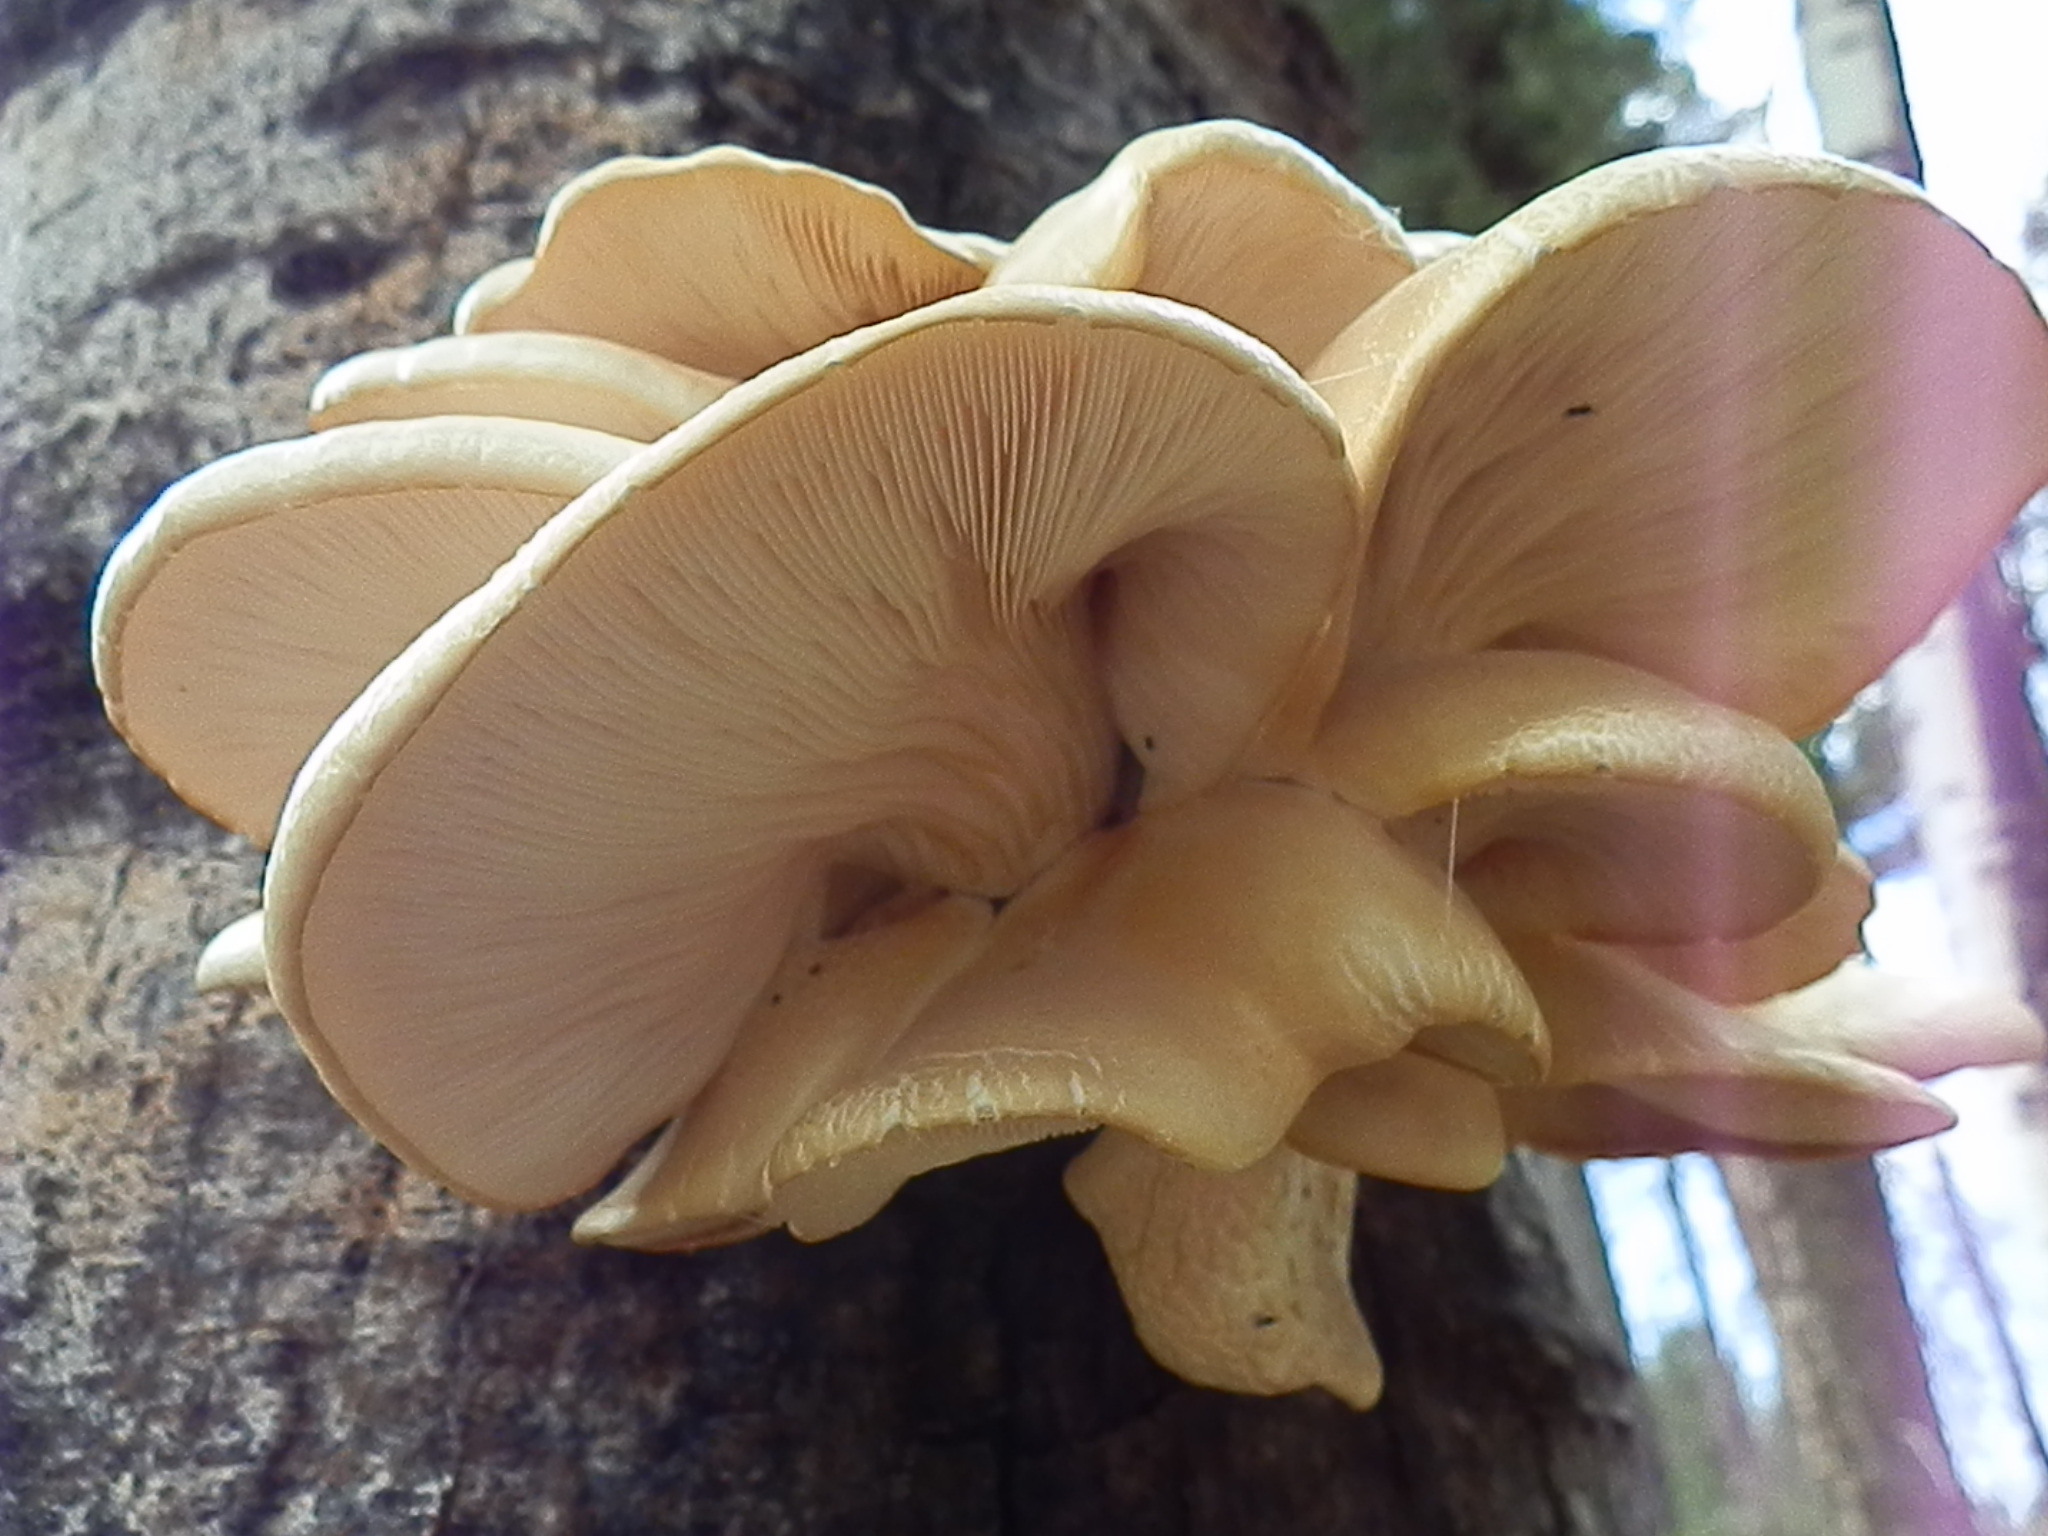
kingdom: Fungi
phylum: Basidiomycota
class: Agaricomycetes
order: Agaricales
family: Pleurotaceae
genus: Pleurotus
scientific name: Pleurotus populinus
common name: Aspen oyster mushroom
